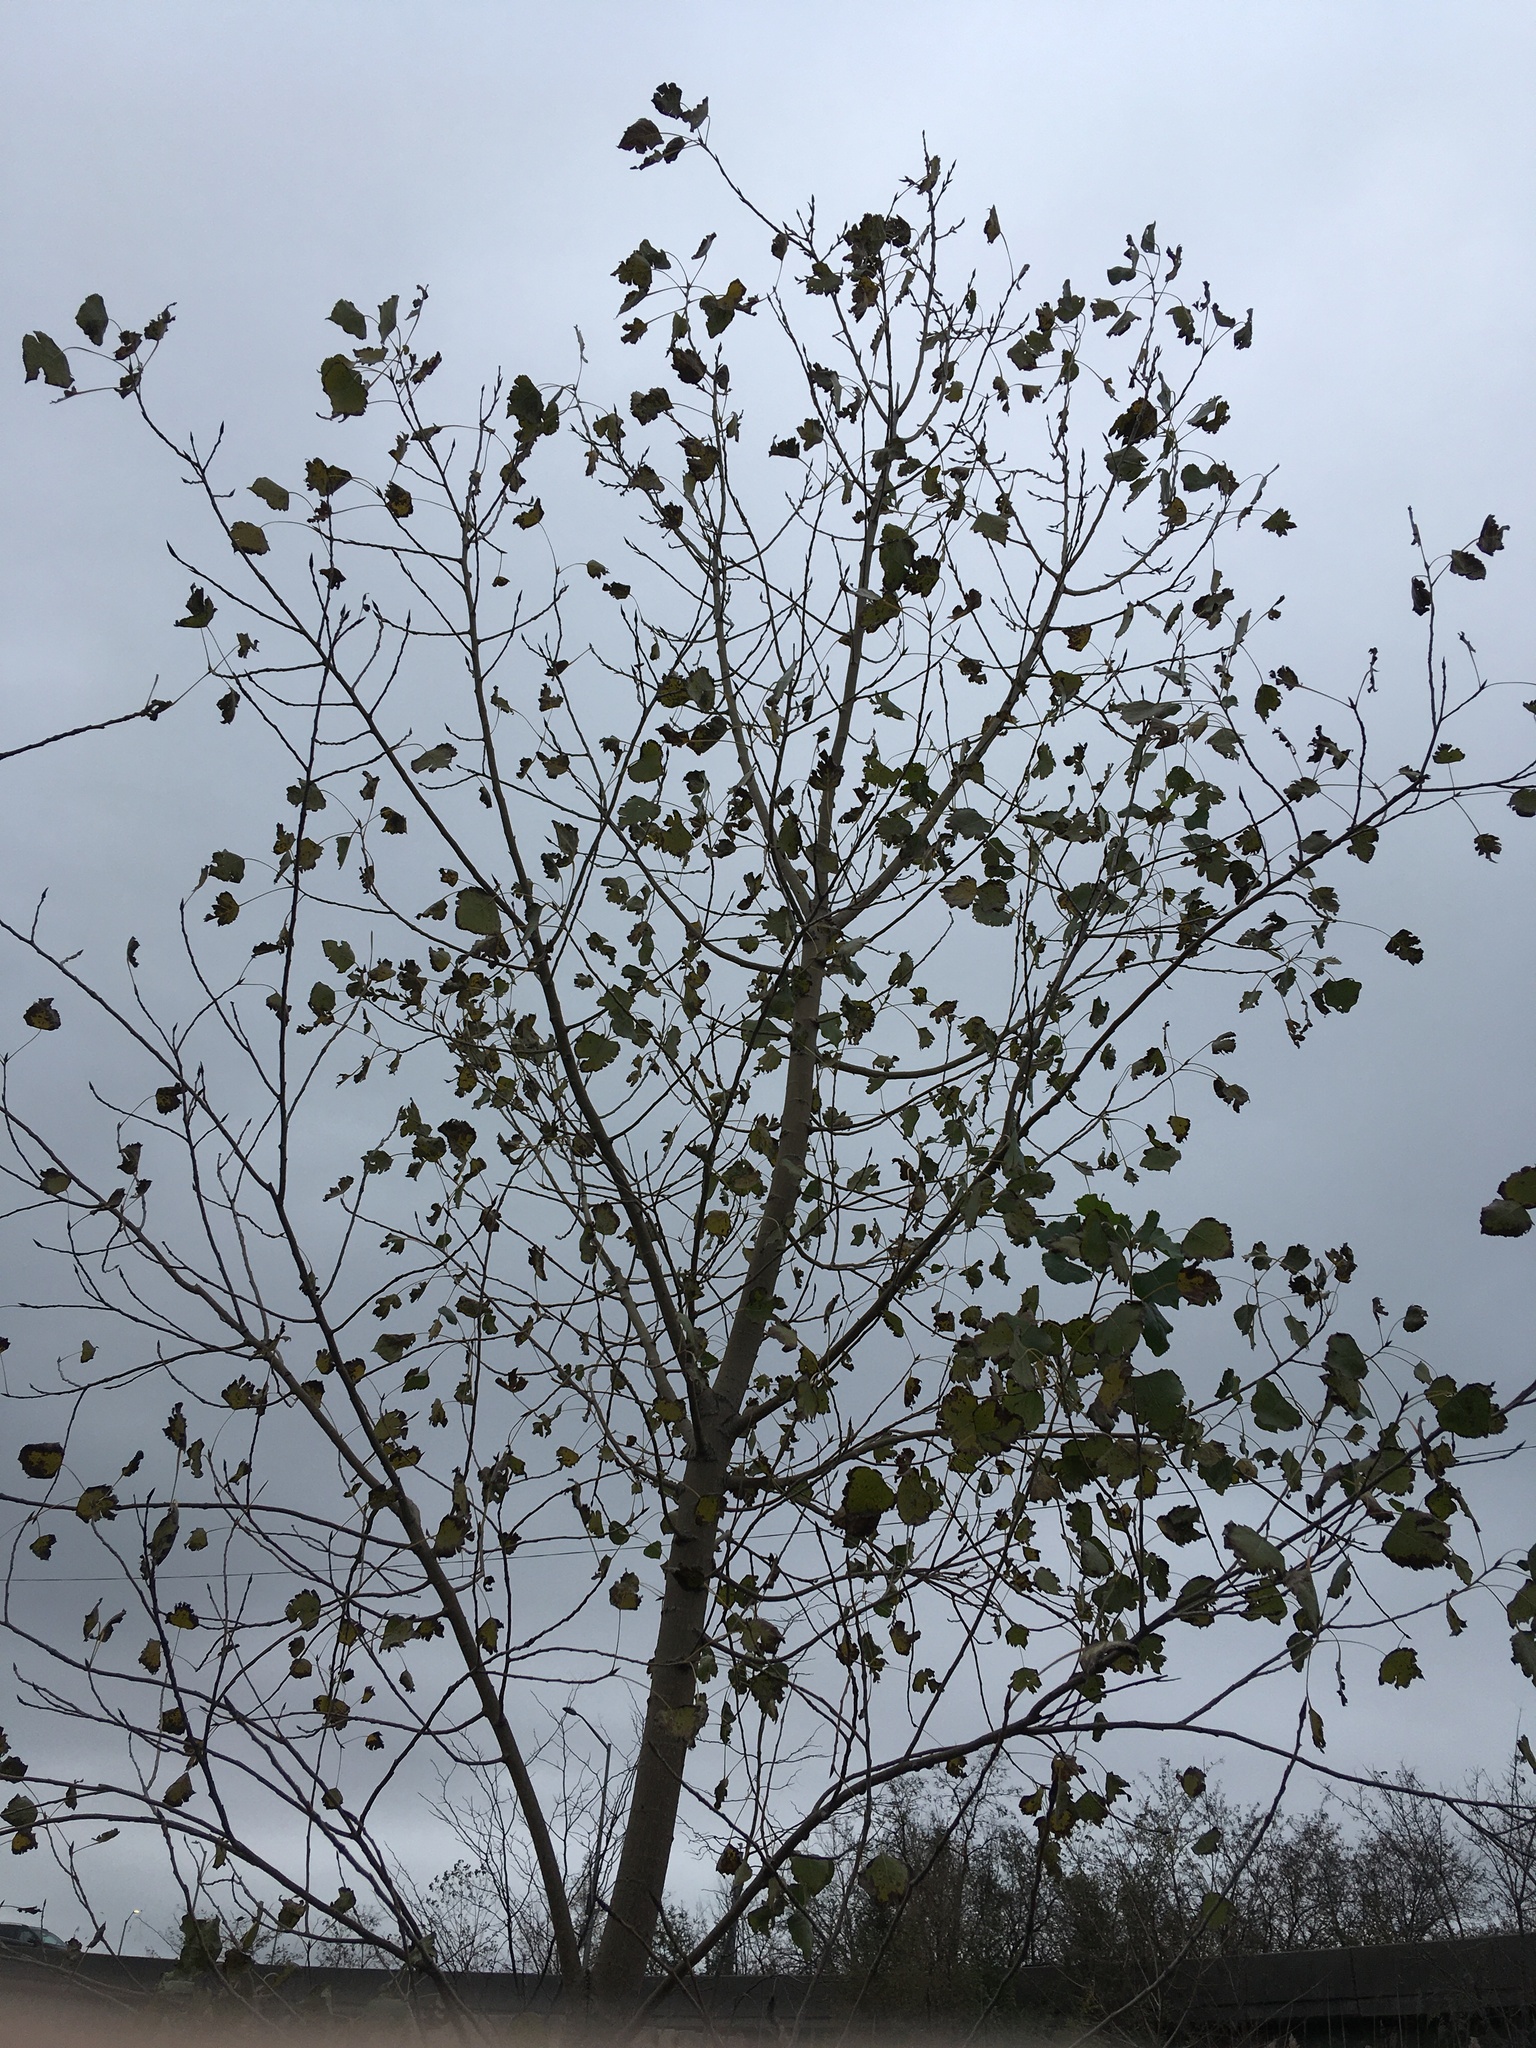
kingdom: Plantae
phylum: Tracheophyta
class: Magnoliopsida
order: Malpighiales
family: Salicaceae
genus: Populus
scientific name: Populus deltoides
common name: Eastern cottonwood
